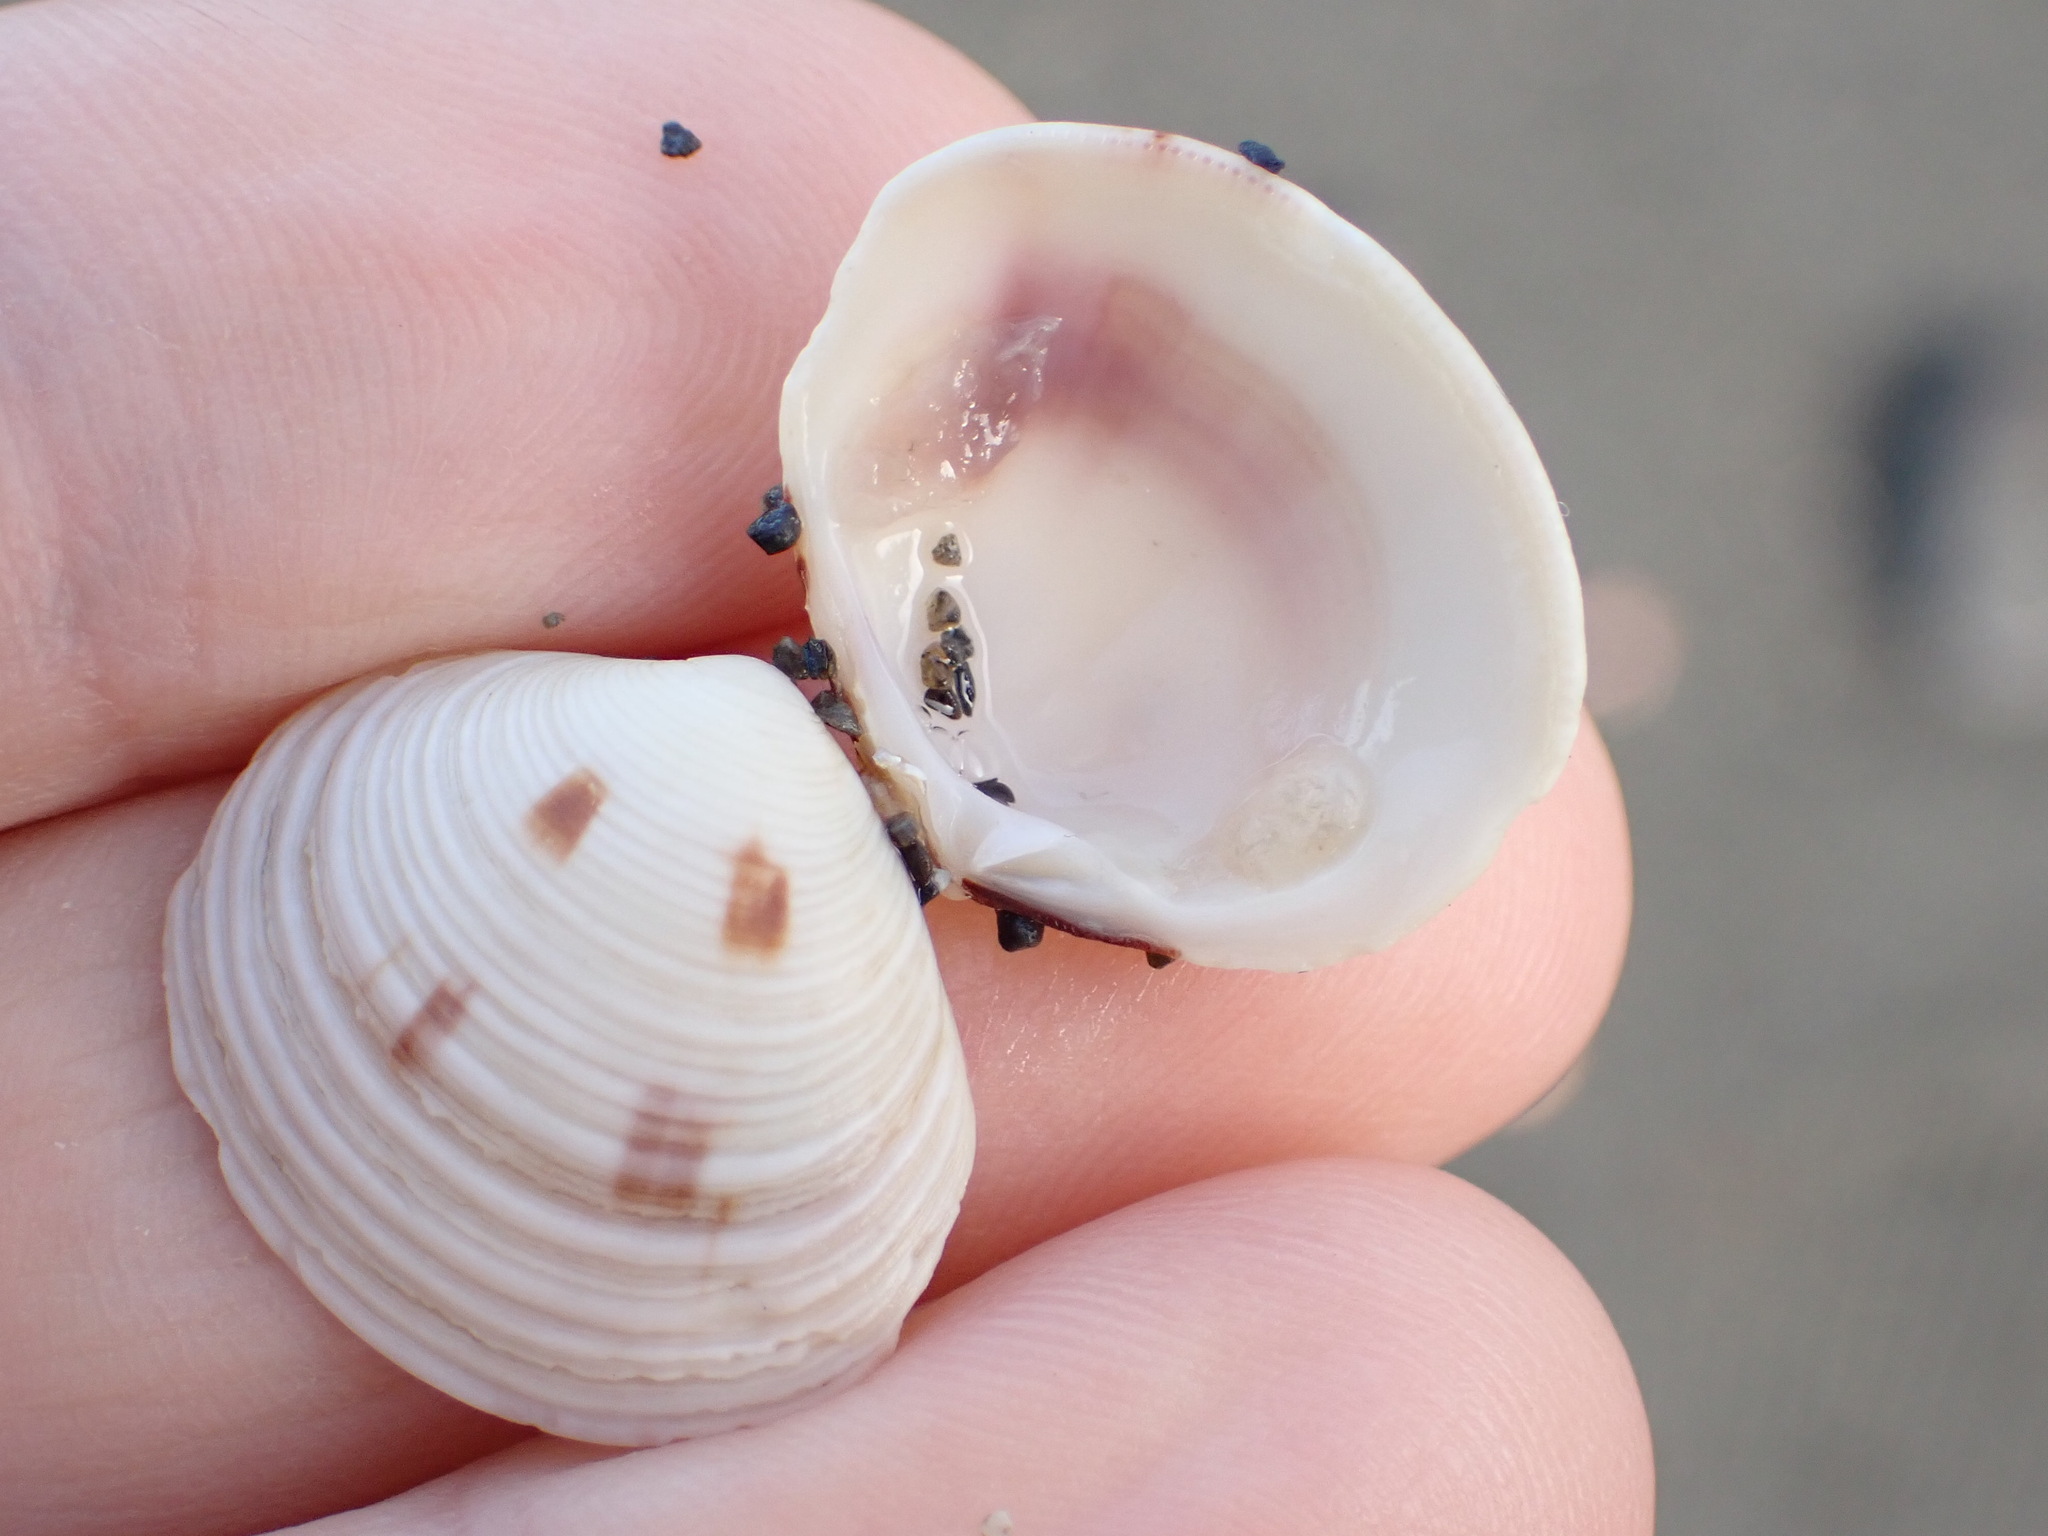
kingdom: Animalia
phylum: Mollusca
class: Bivalvia
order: Venerida
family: Veneridae
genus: Tawera
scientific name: Tawera spissa
